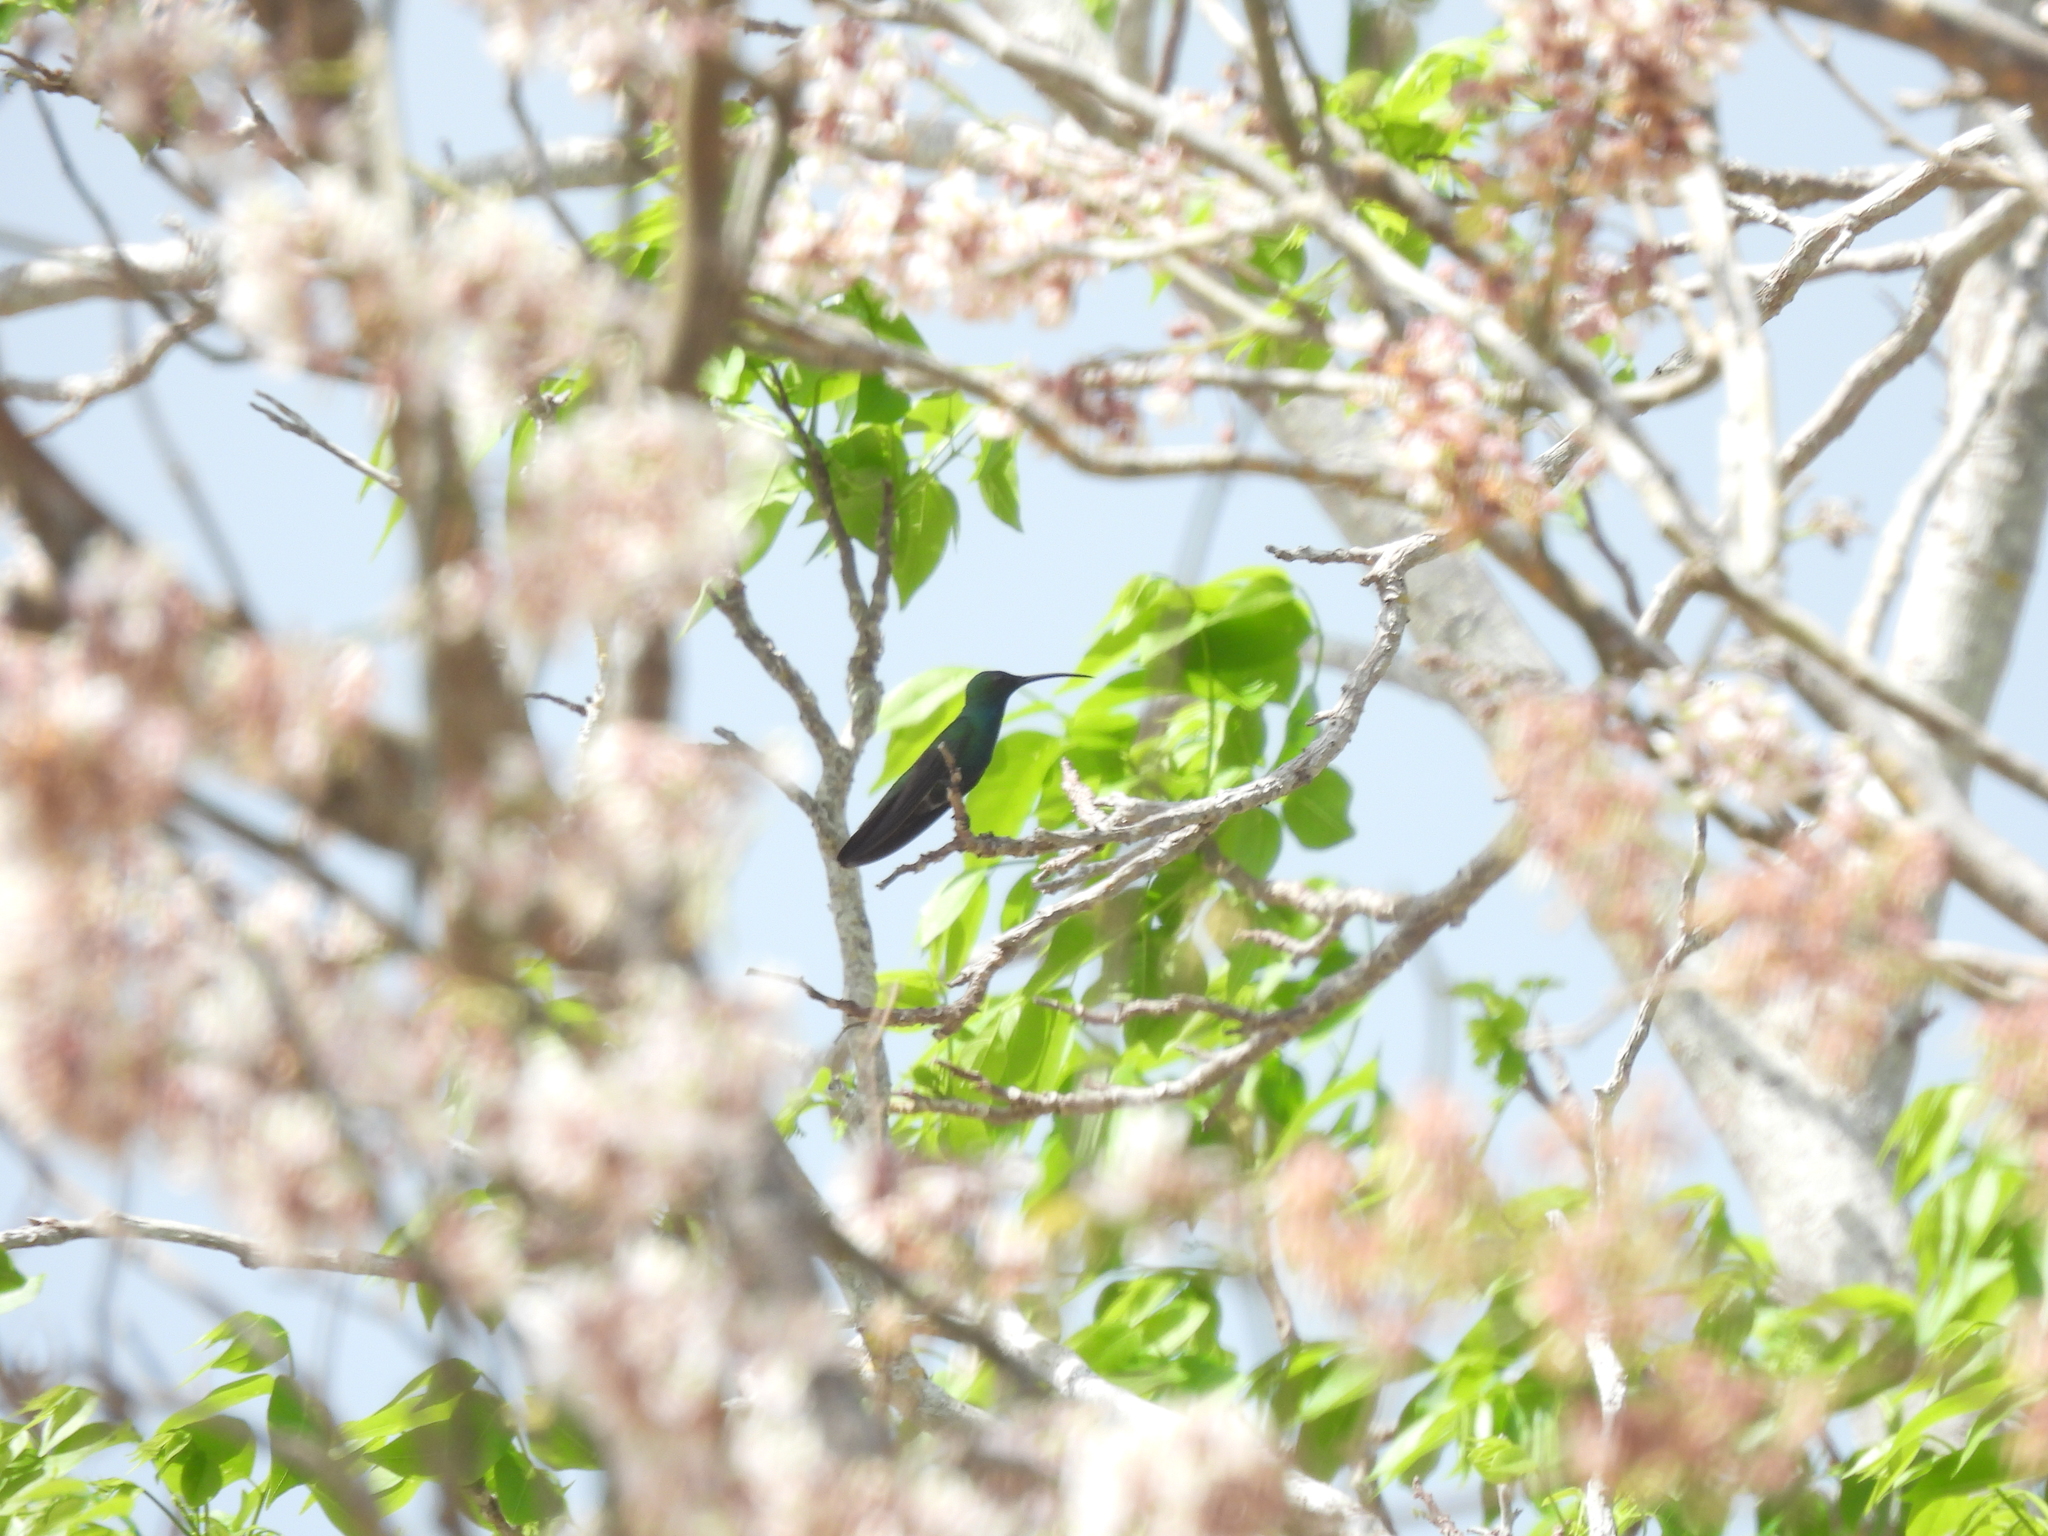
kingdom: Animalia
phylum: Chordata
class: Aves
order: Apodiformes
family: Trochilidae
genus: Anthracothorax
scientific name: Anthracothorax prevostii
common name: Green-breasted mango
